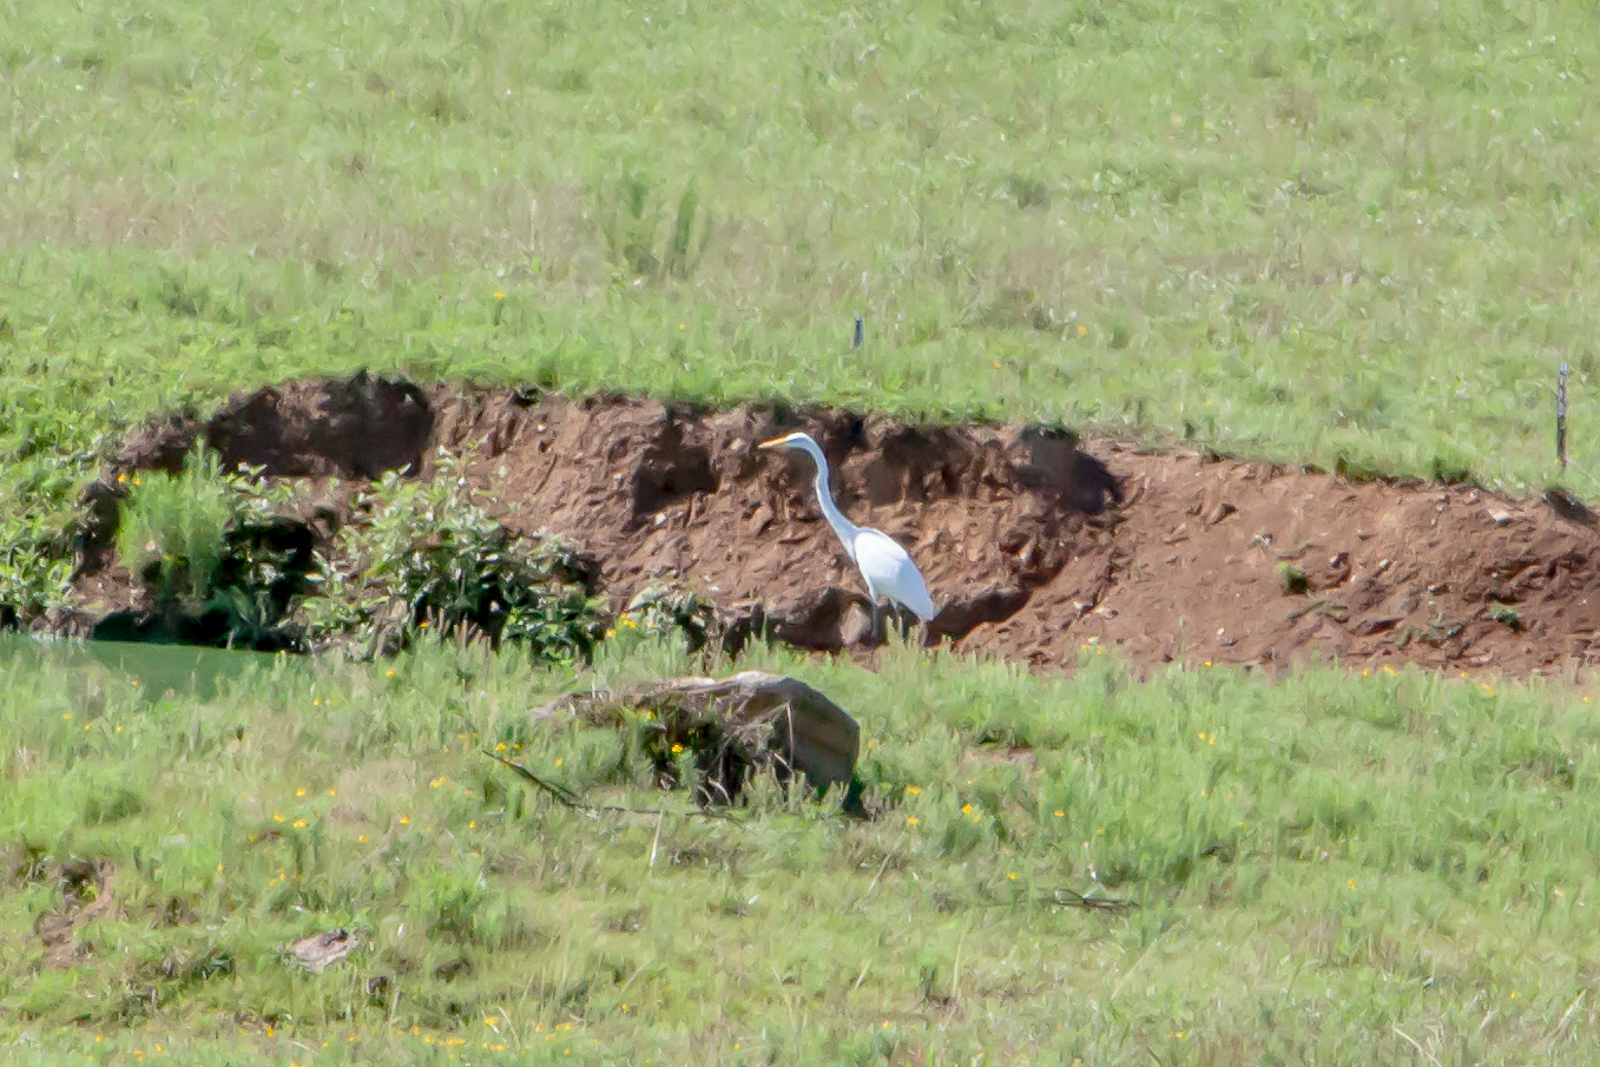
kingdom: Animalia
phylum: Chordata
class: Aves
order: Pelecaniformes
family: Ardeidae
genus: Ardea
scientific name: Ardea alba
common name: Great egret
